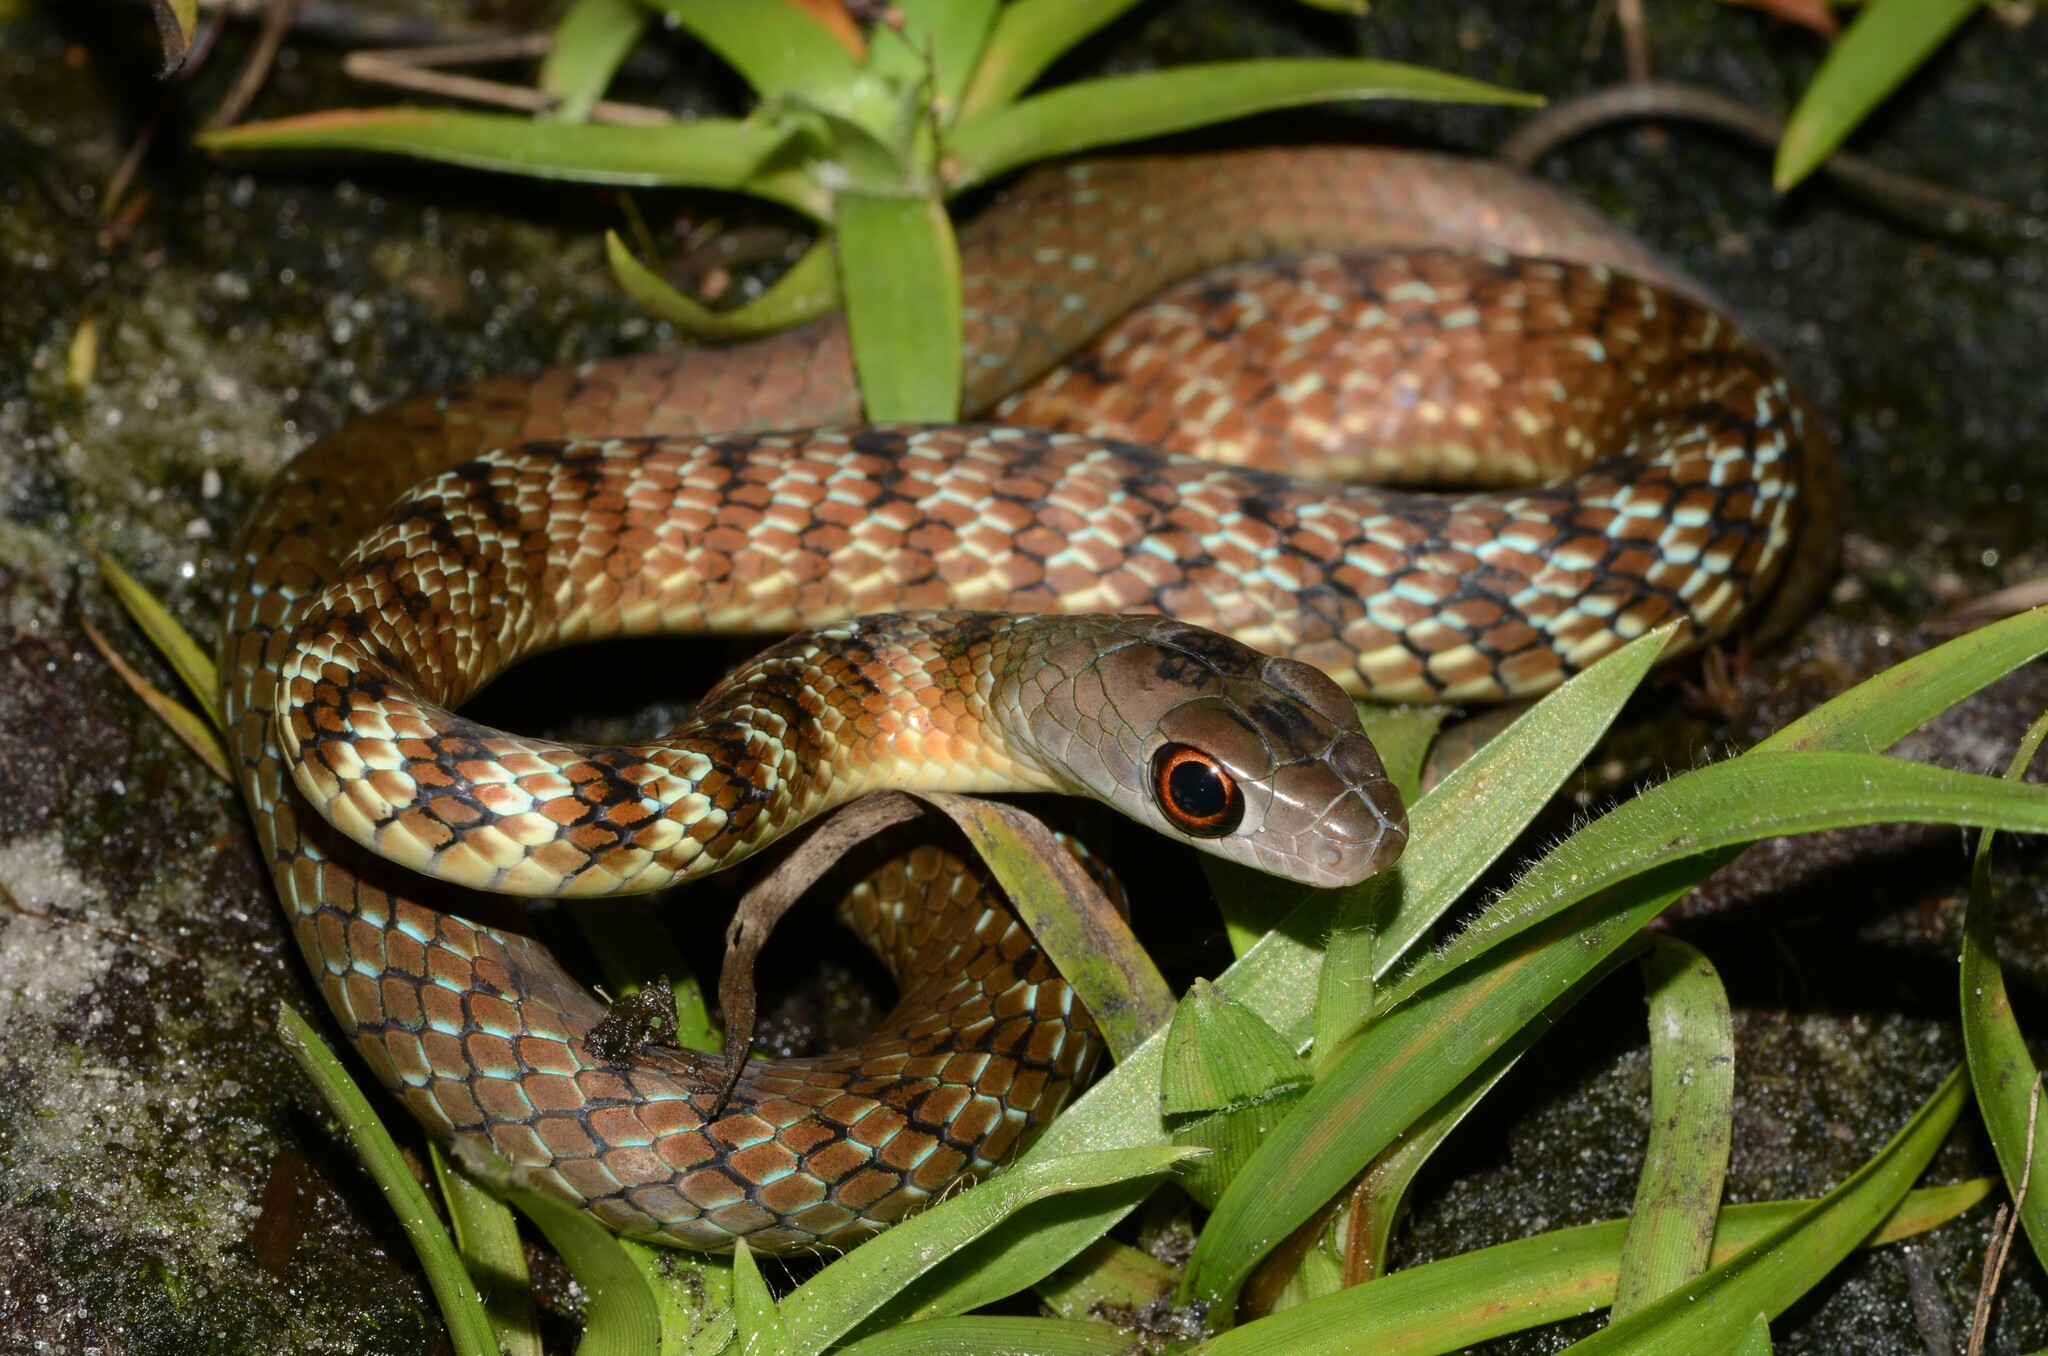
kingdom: Animalia
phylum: Chordata
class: Squamata
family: Colubridae
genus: Philothamnus
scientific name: Philothamnus mayombensis
